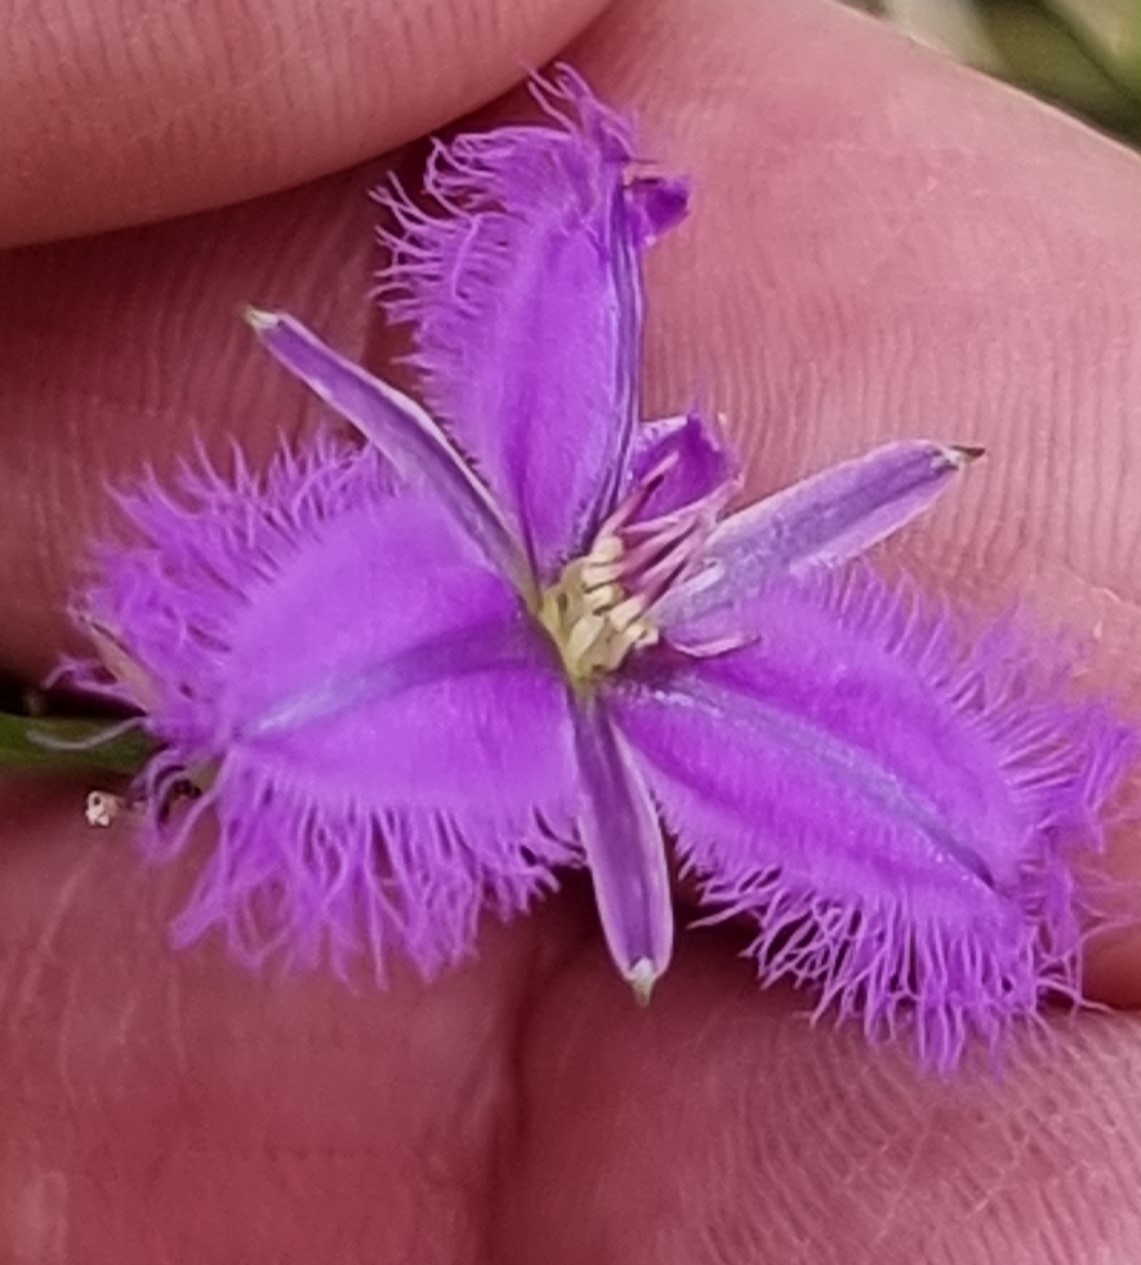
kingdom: Plantae
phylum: Tracheophyta
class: Liliopsida
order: Asparagales
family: Asparagaceae
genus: Thysanotus
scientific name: Thysanotus tuberosus
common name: Common fringed-lily
